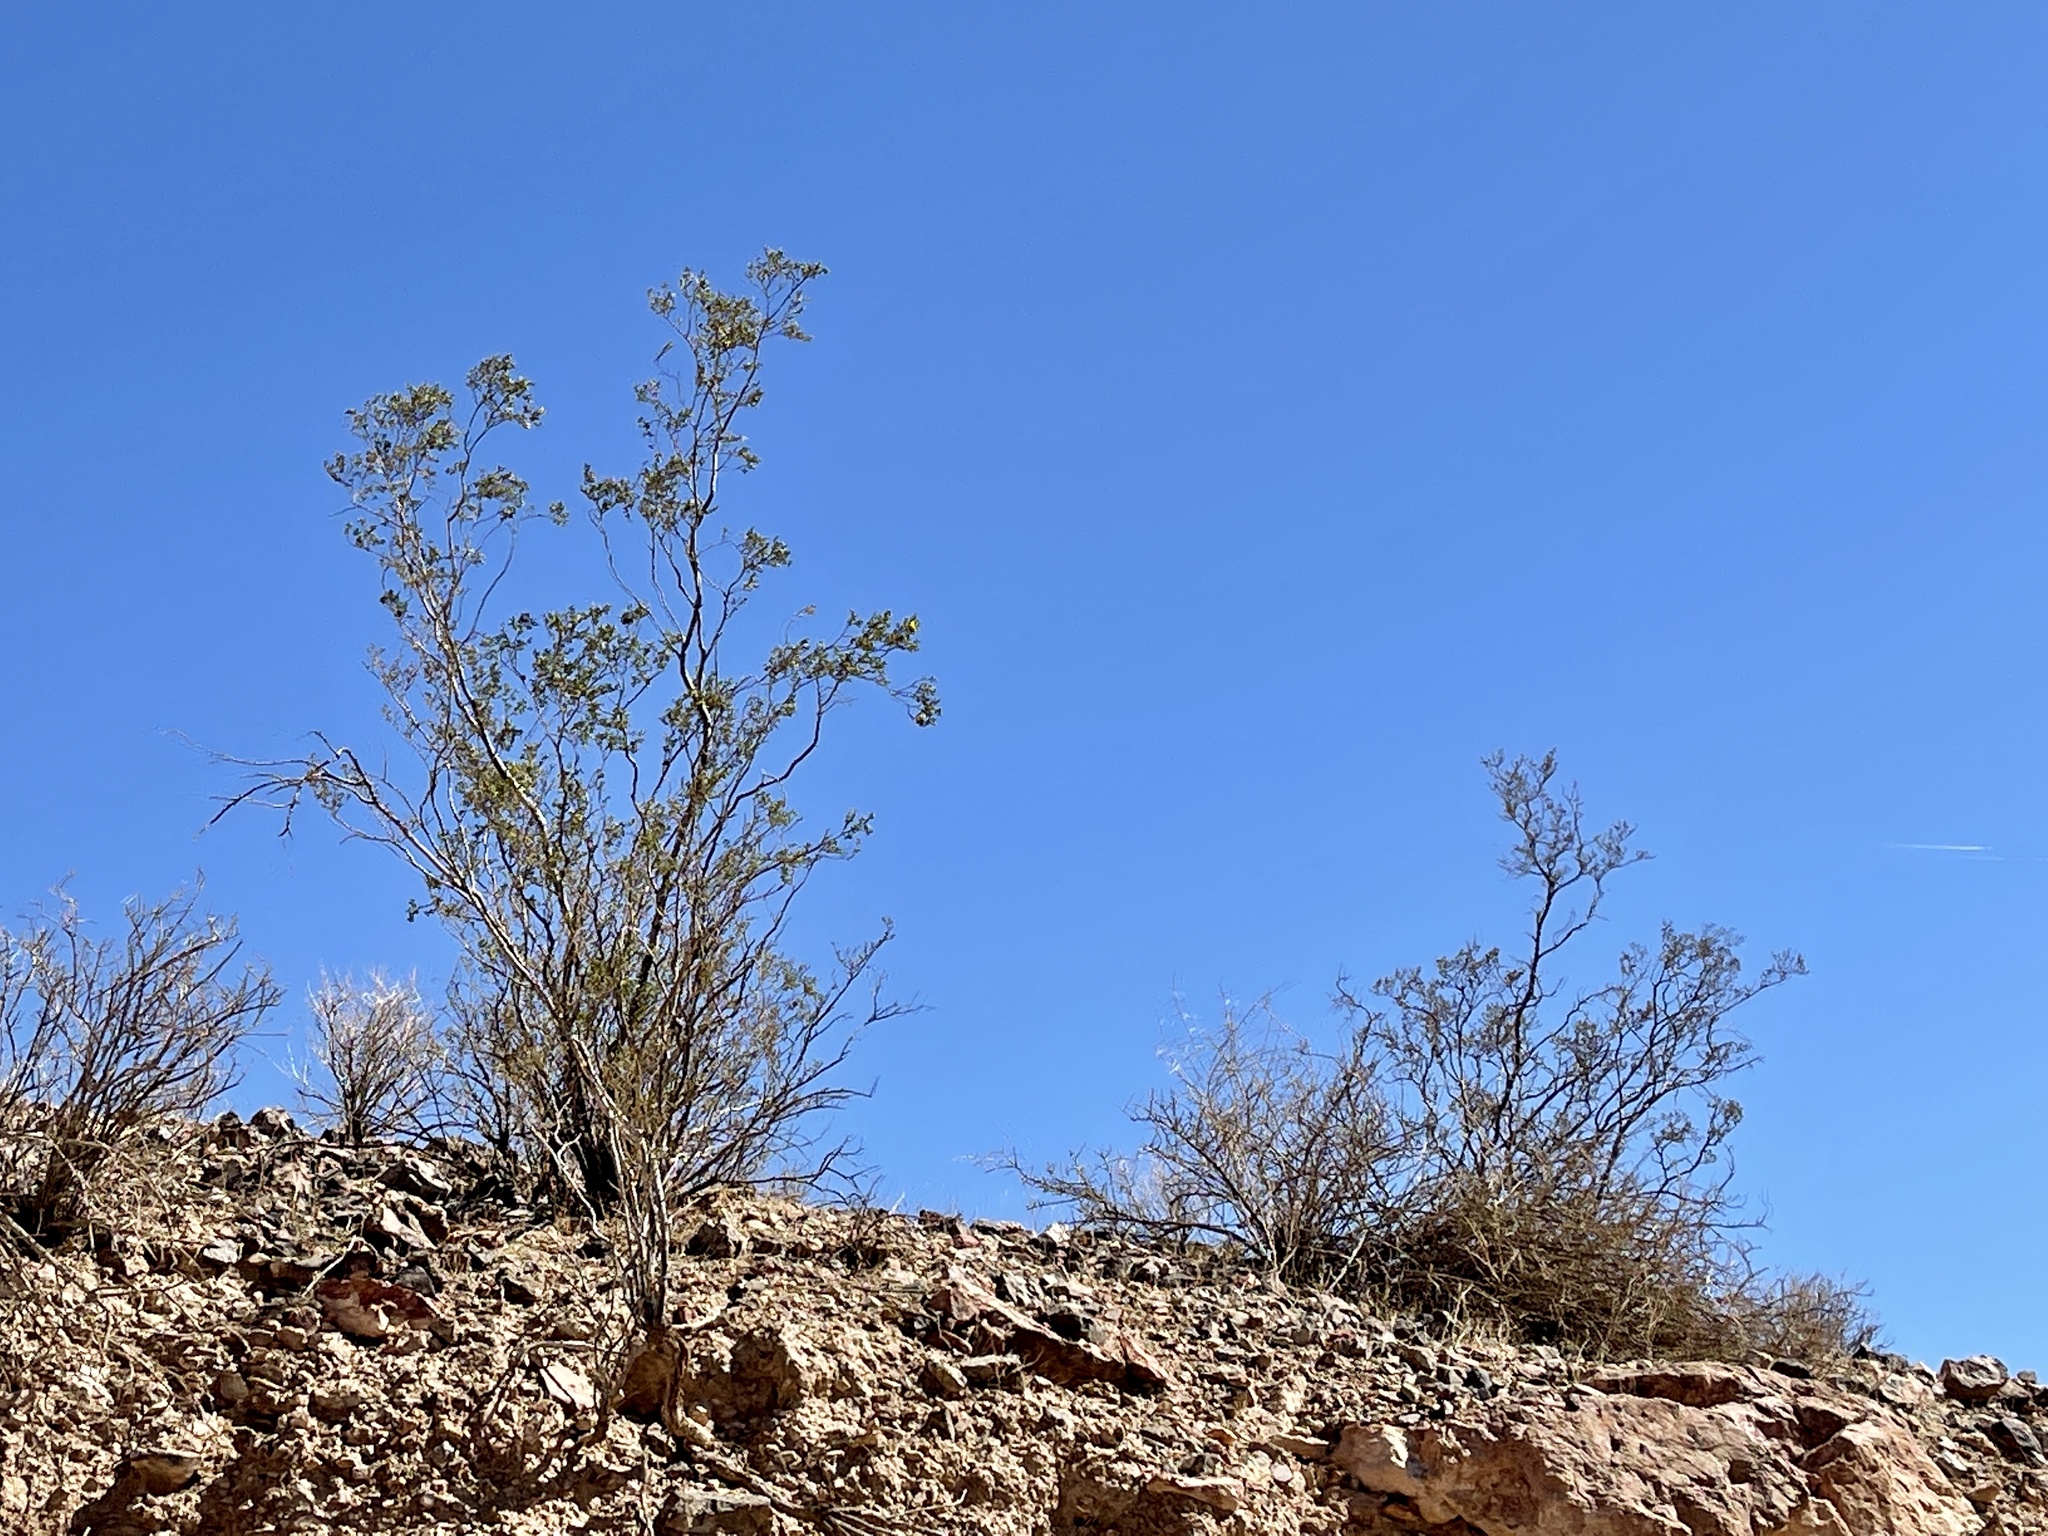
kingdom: Plantae
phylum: Tracheophyta
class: Magnoliopsida
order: Zygophyllales
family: Zygophyllaceae
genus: Larrea
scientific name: Larrea tridentata
